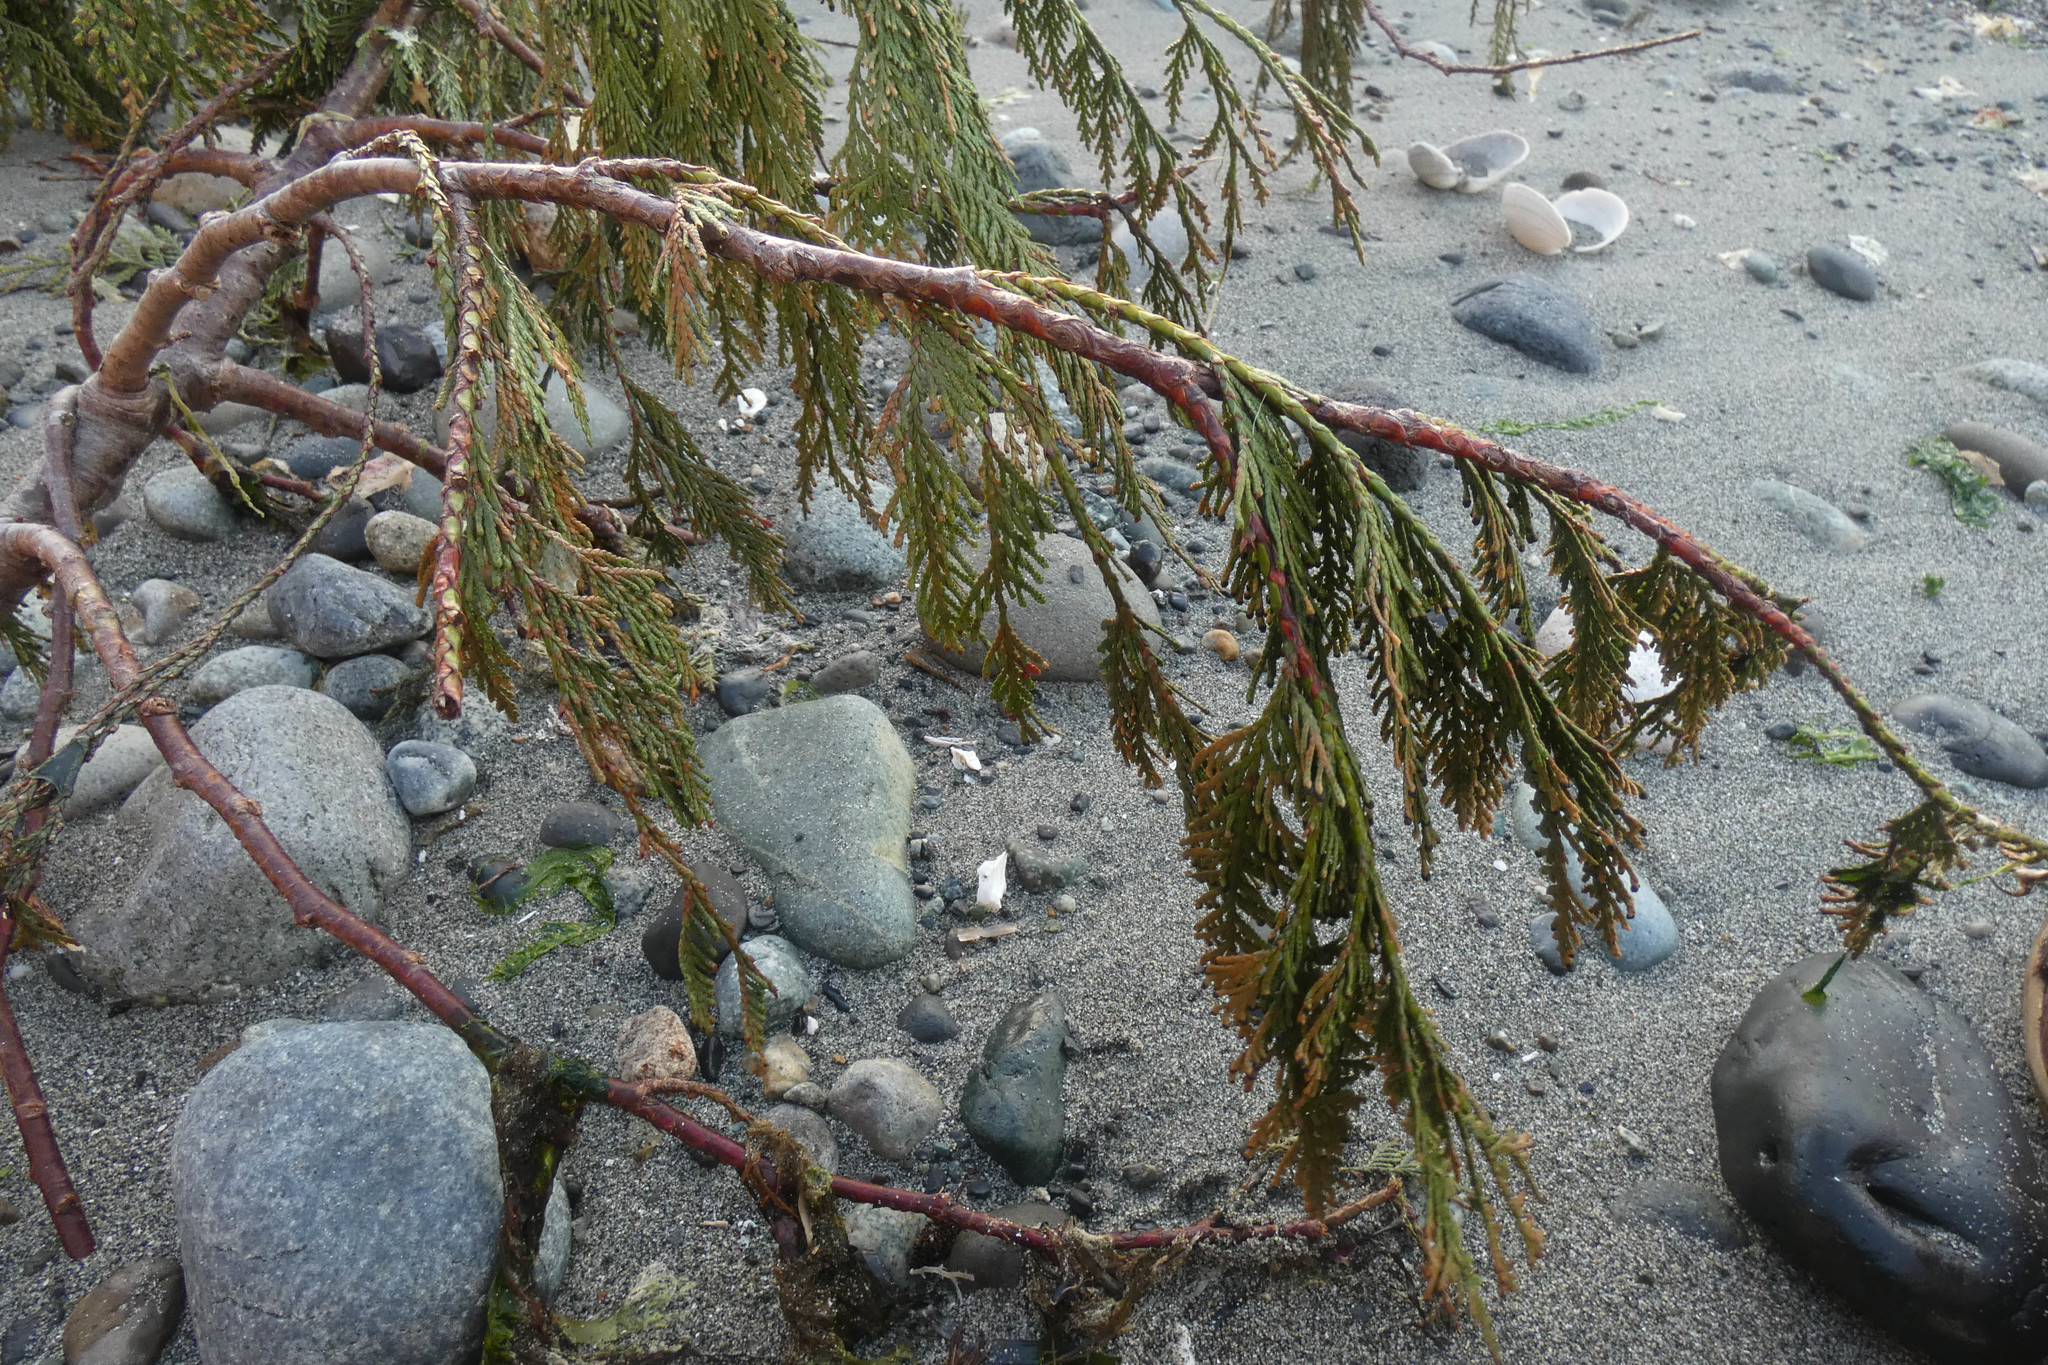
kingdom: Plantae
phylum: Tracheophyta
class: Pinopsida
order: Pinales
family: Cupressaceae
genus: Thuja
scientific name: Thuja plicata
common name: Western red-cedar
